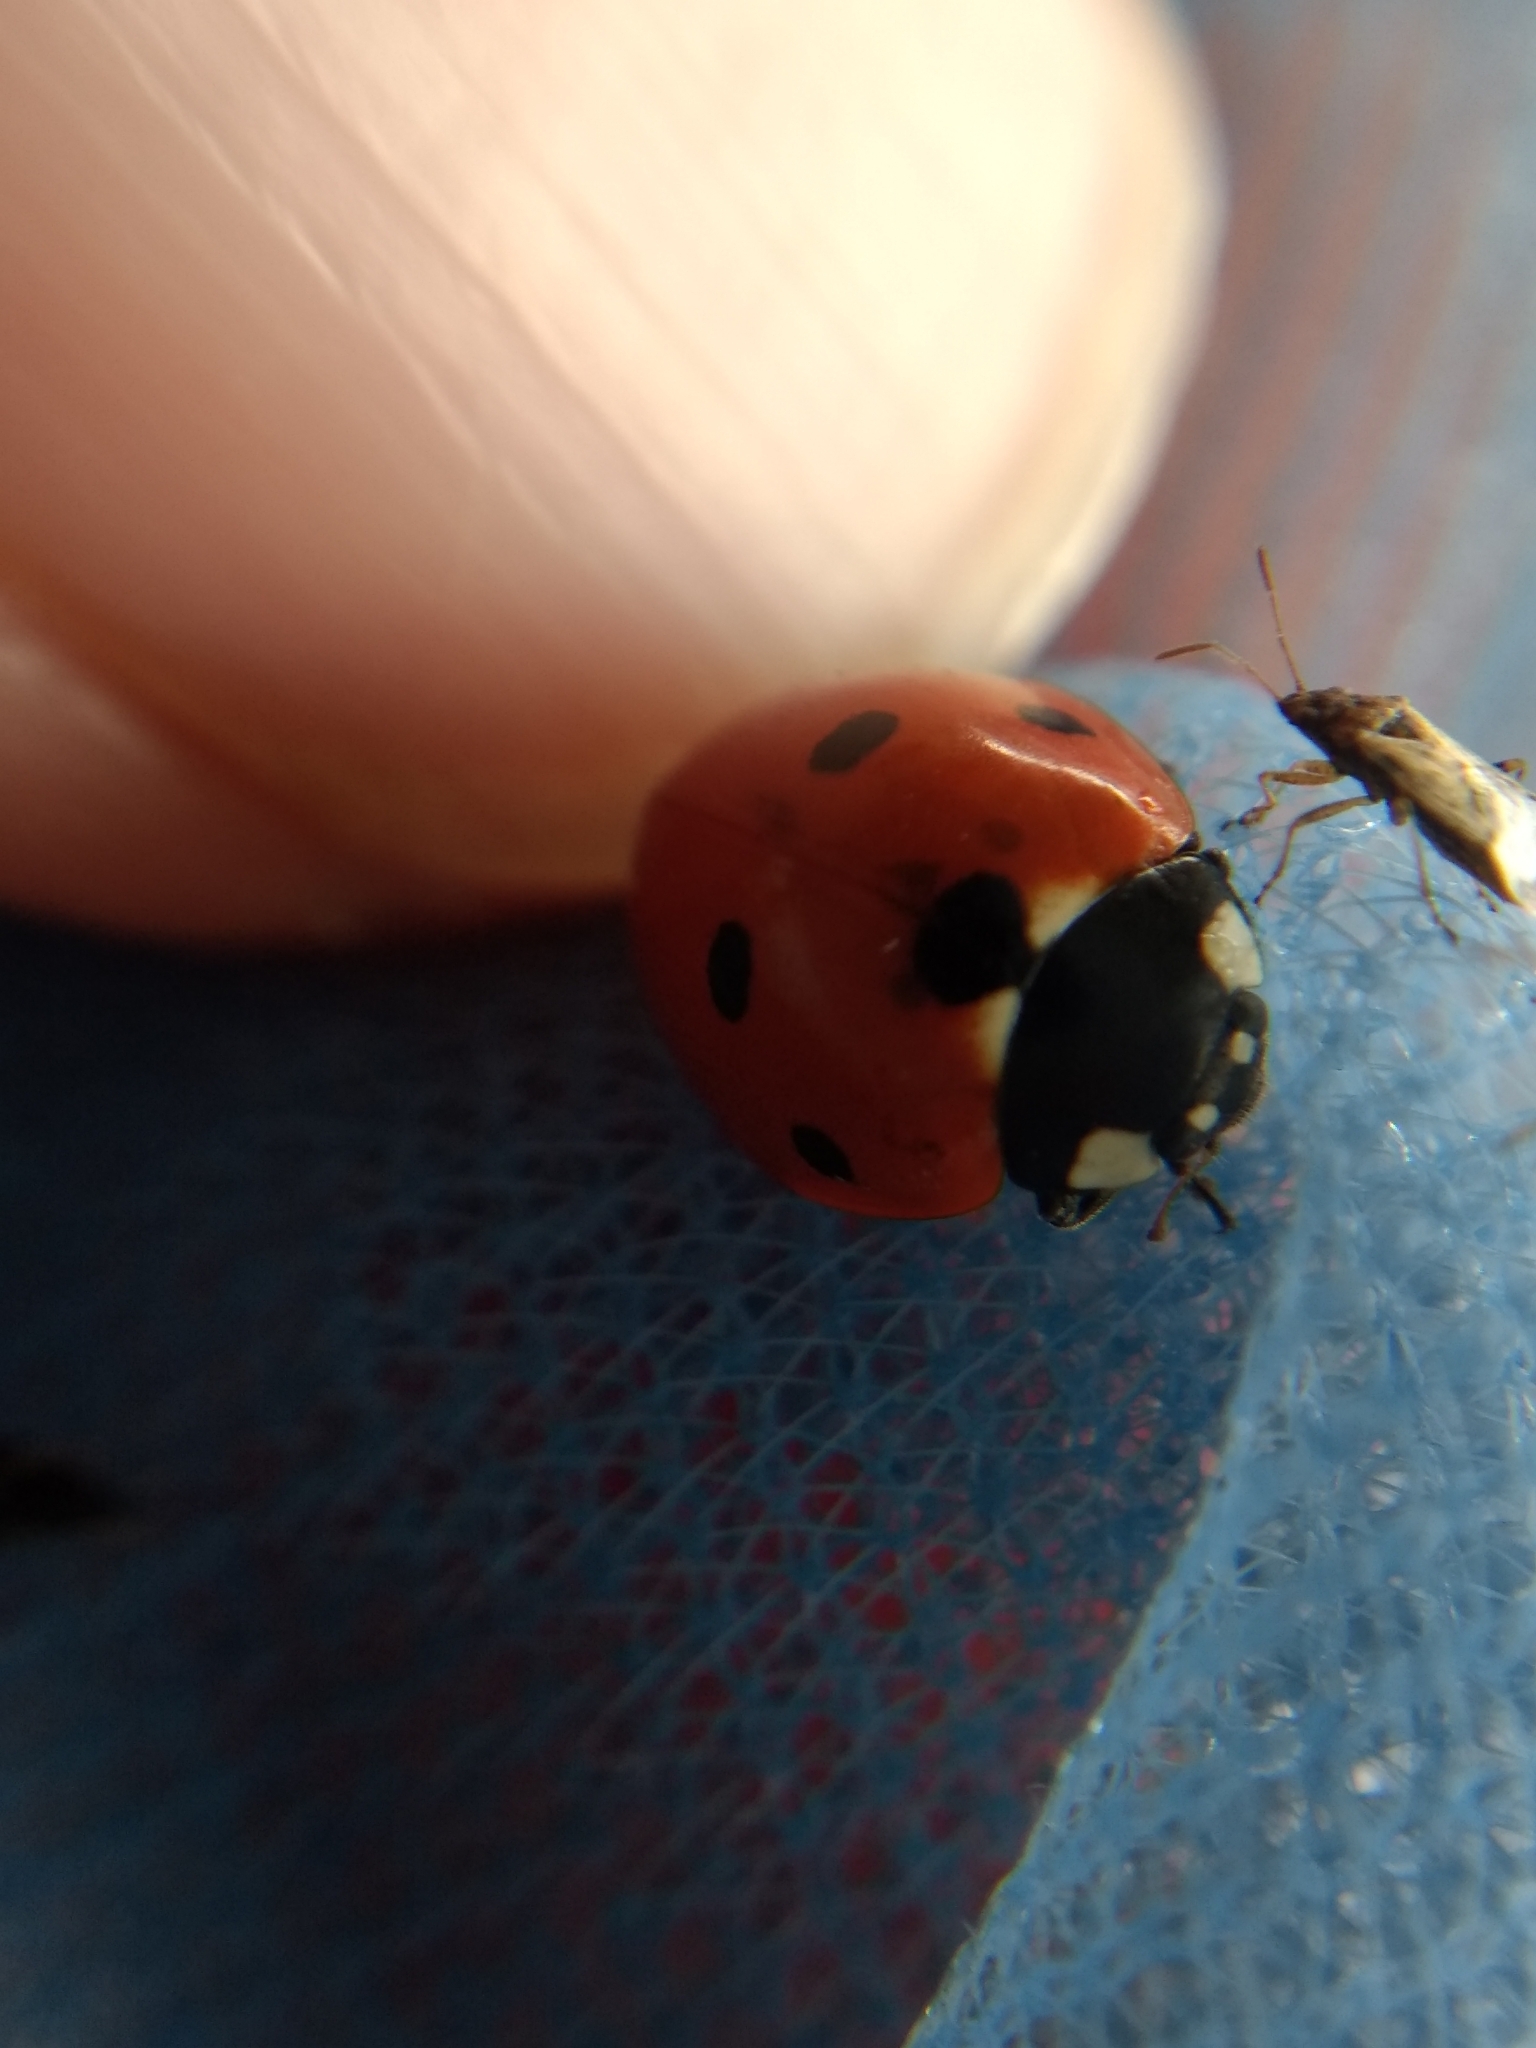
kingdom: Animalia
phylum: Arthropoda
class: Insecta
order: Coleoptera
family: Coccinellidae
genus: Coccinella
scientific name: Coccinella septempunctata
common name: Sevenspotted lady beetle
